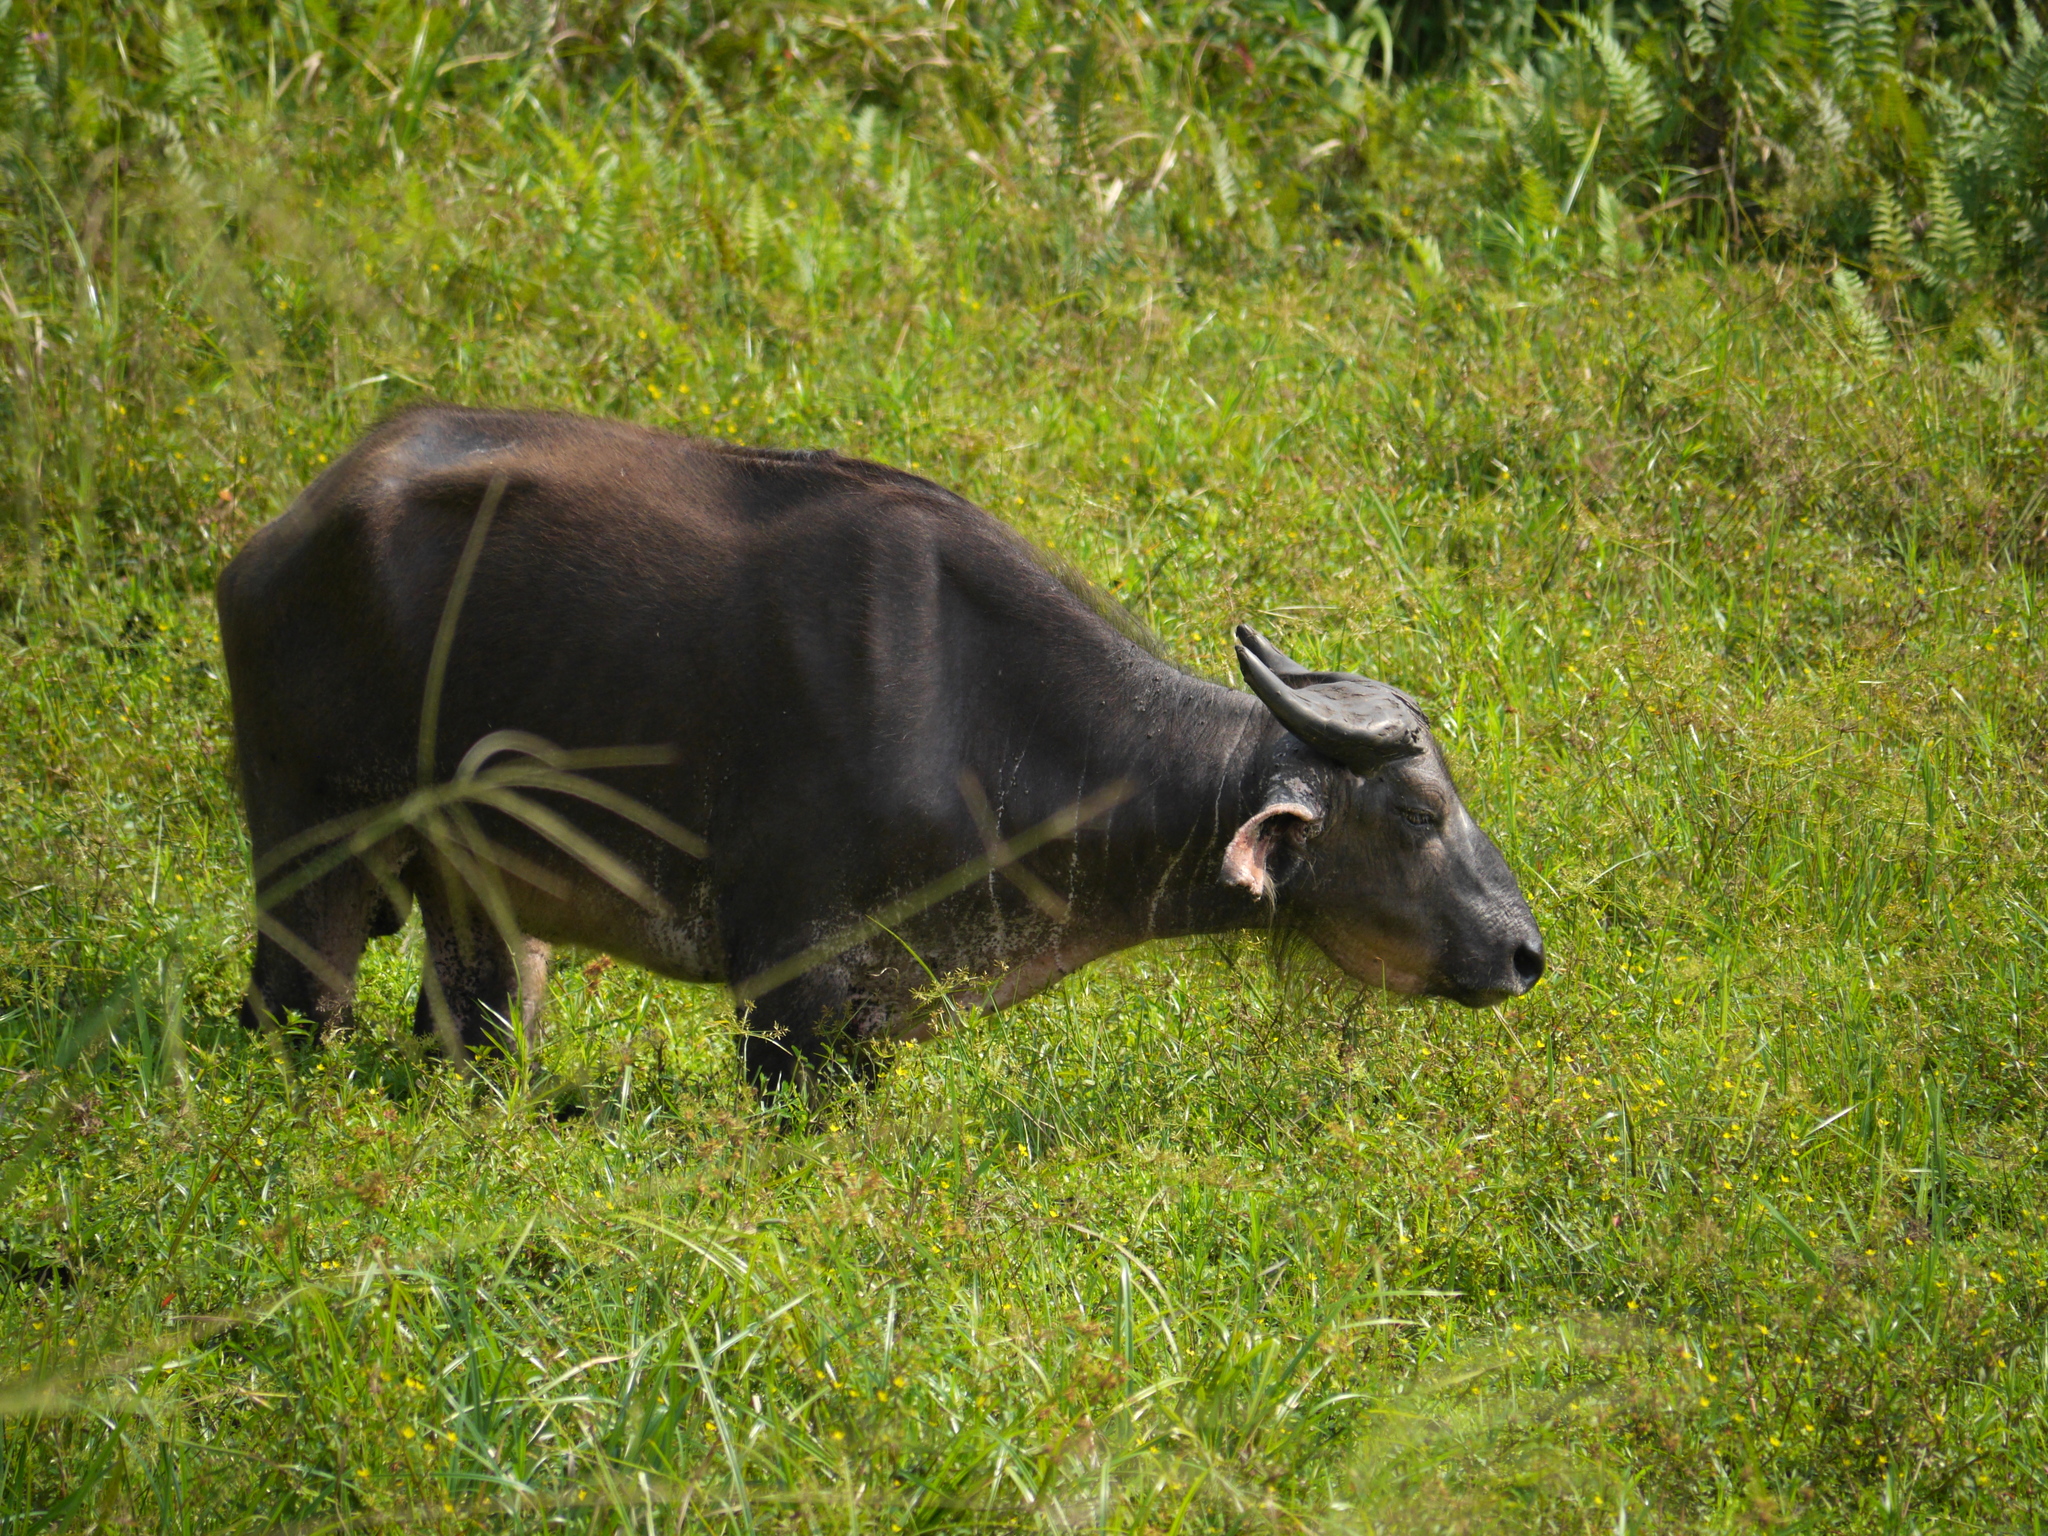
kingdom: Animalia
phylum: Chordata
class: Mammalia
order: Artiodactyla
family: Bovidae
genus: Syncerus
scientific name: Syncerus caffer
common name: African buffalo
